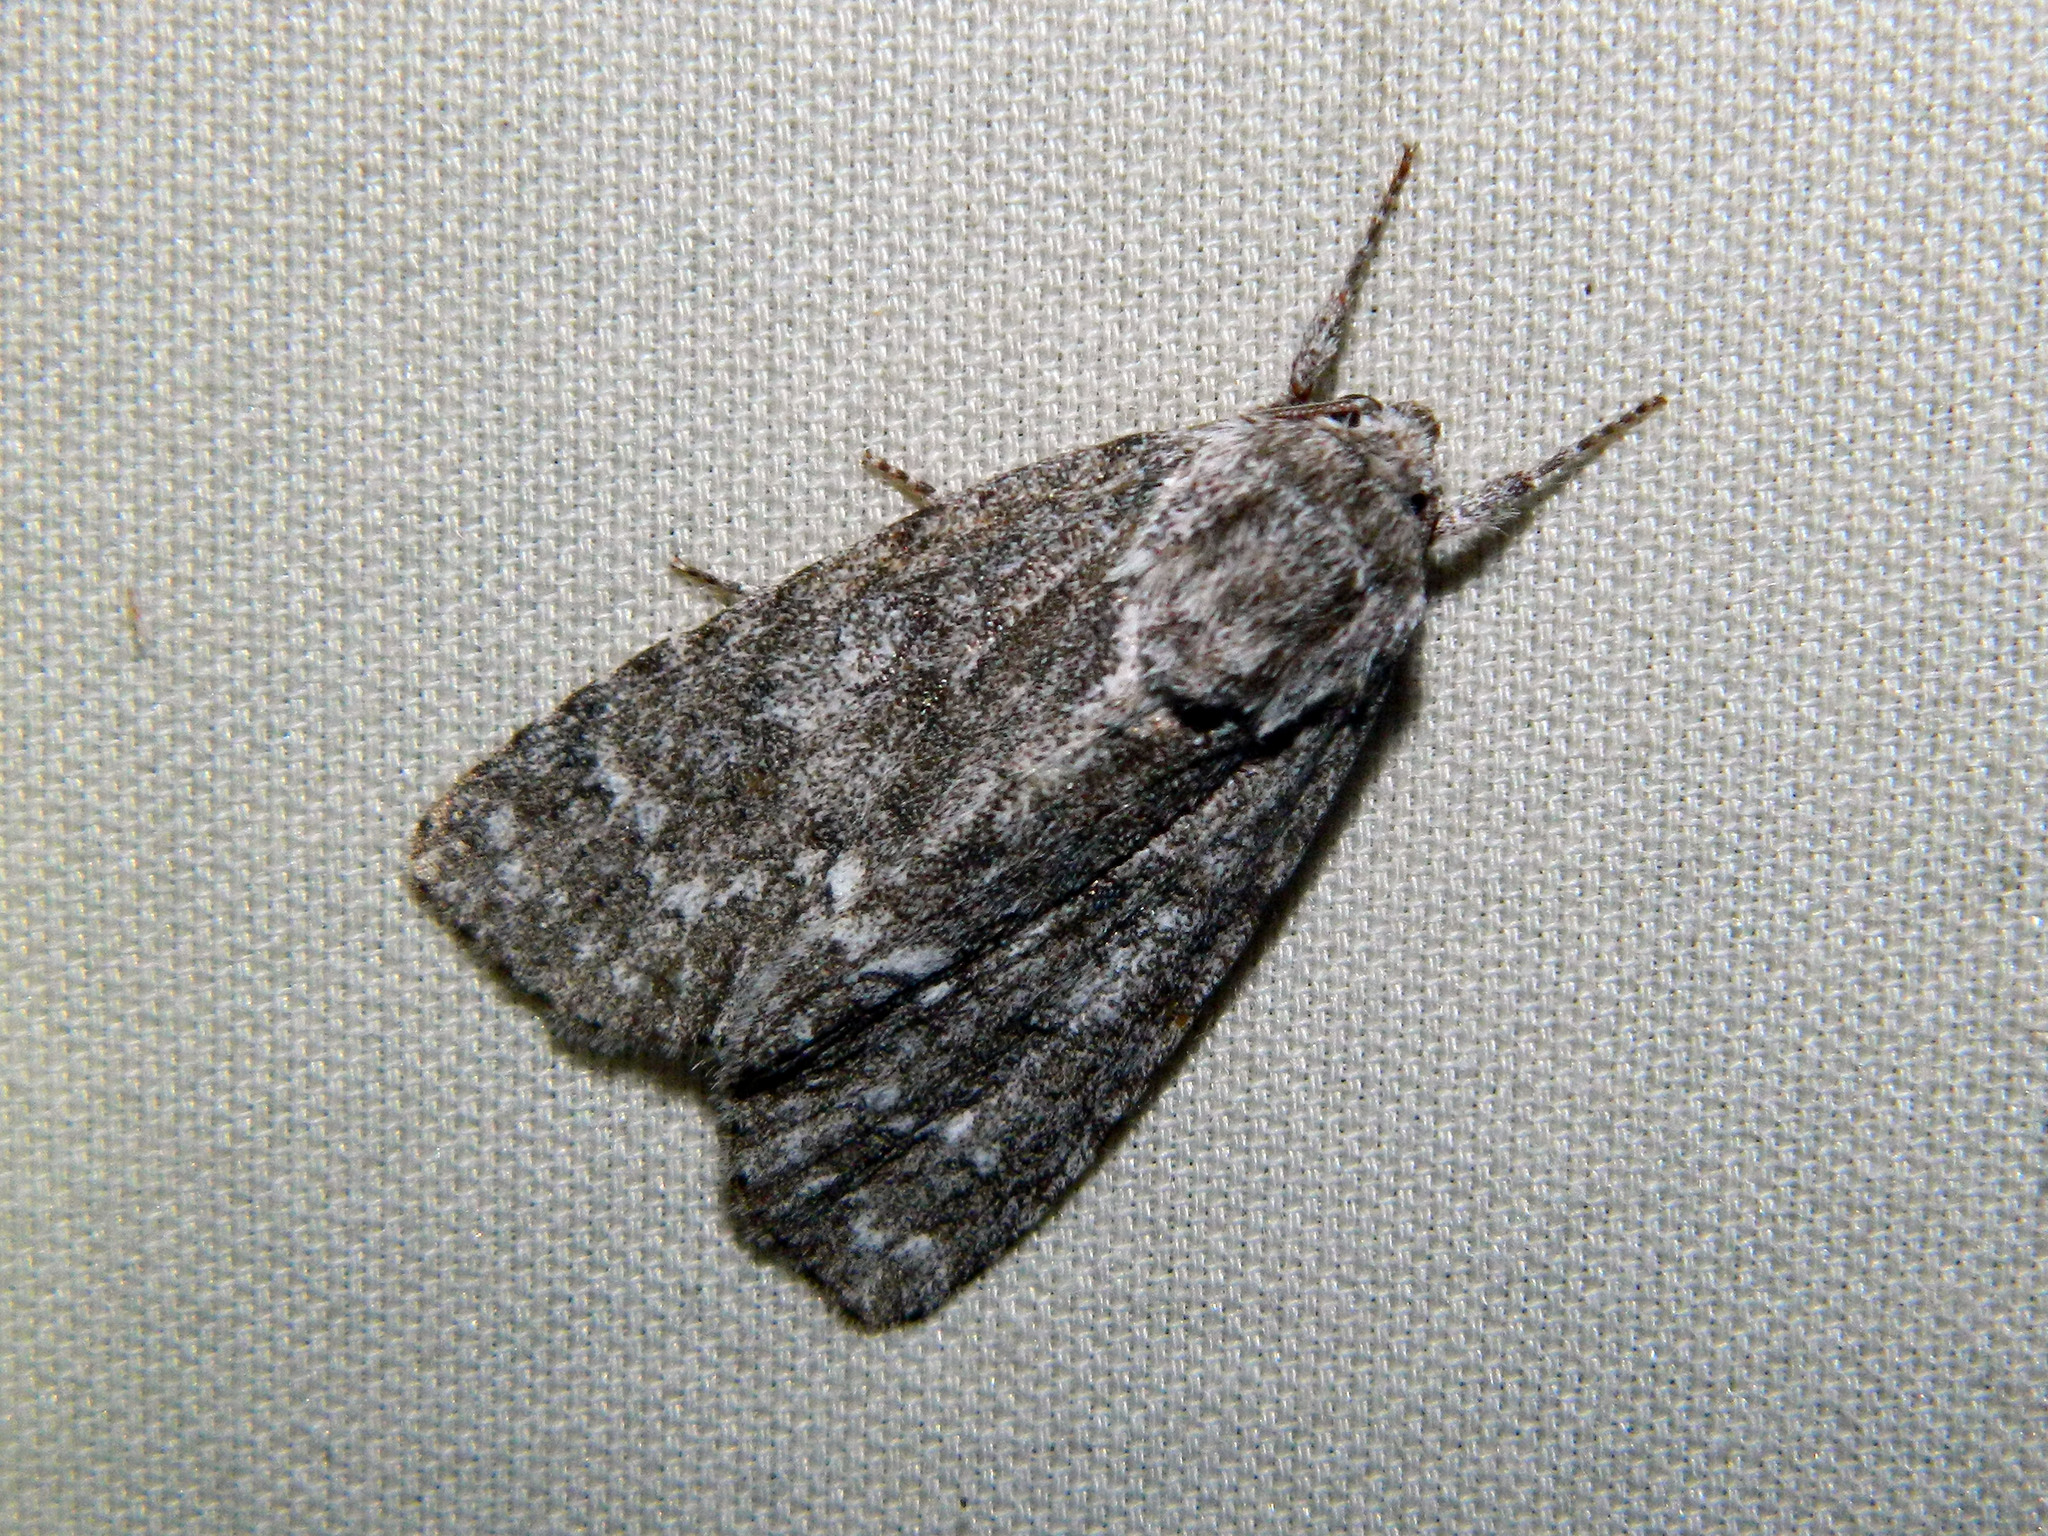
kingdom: Animalia
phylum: Arthropoda
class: Insecta
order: Lepidoptera
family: Noctuidae
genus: Acronicta
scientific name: Acronicta impleta
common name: Powdered dagger
